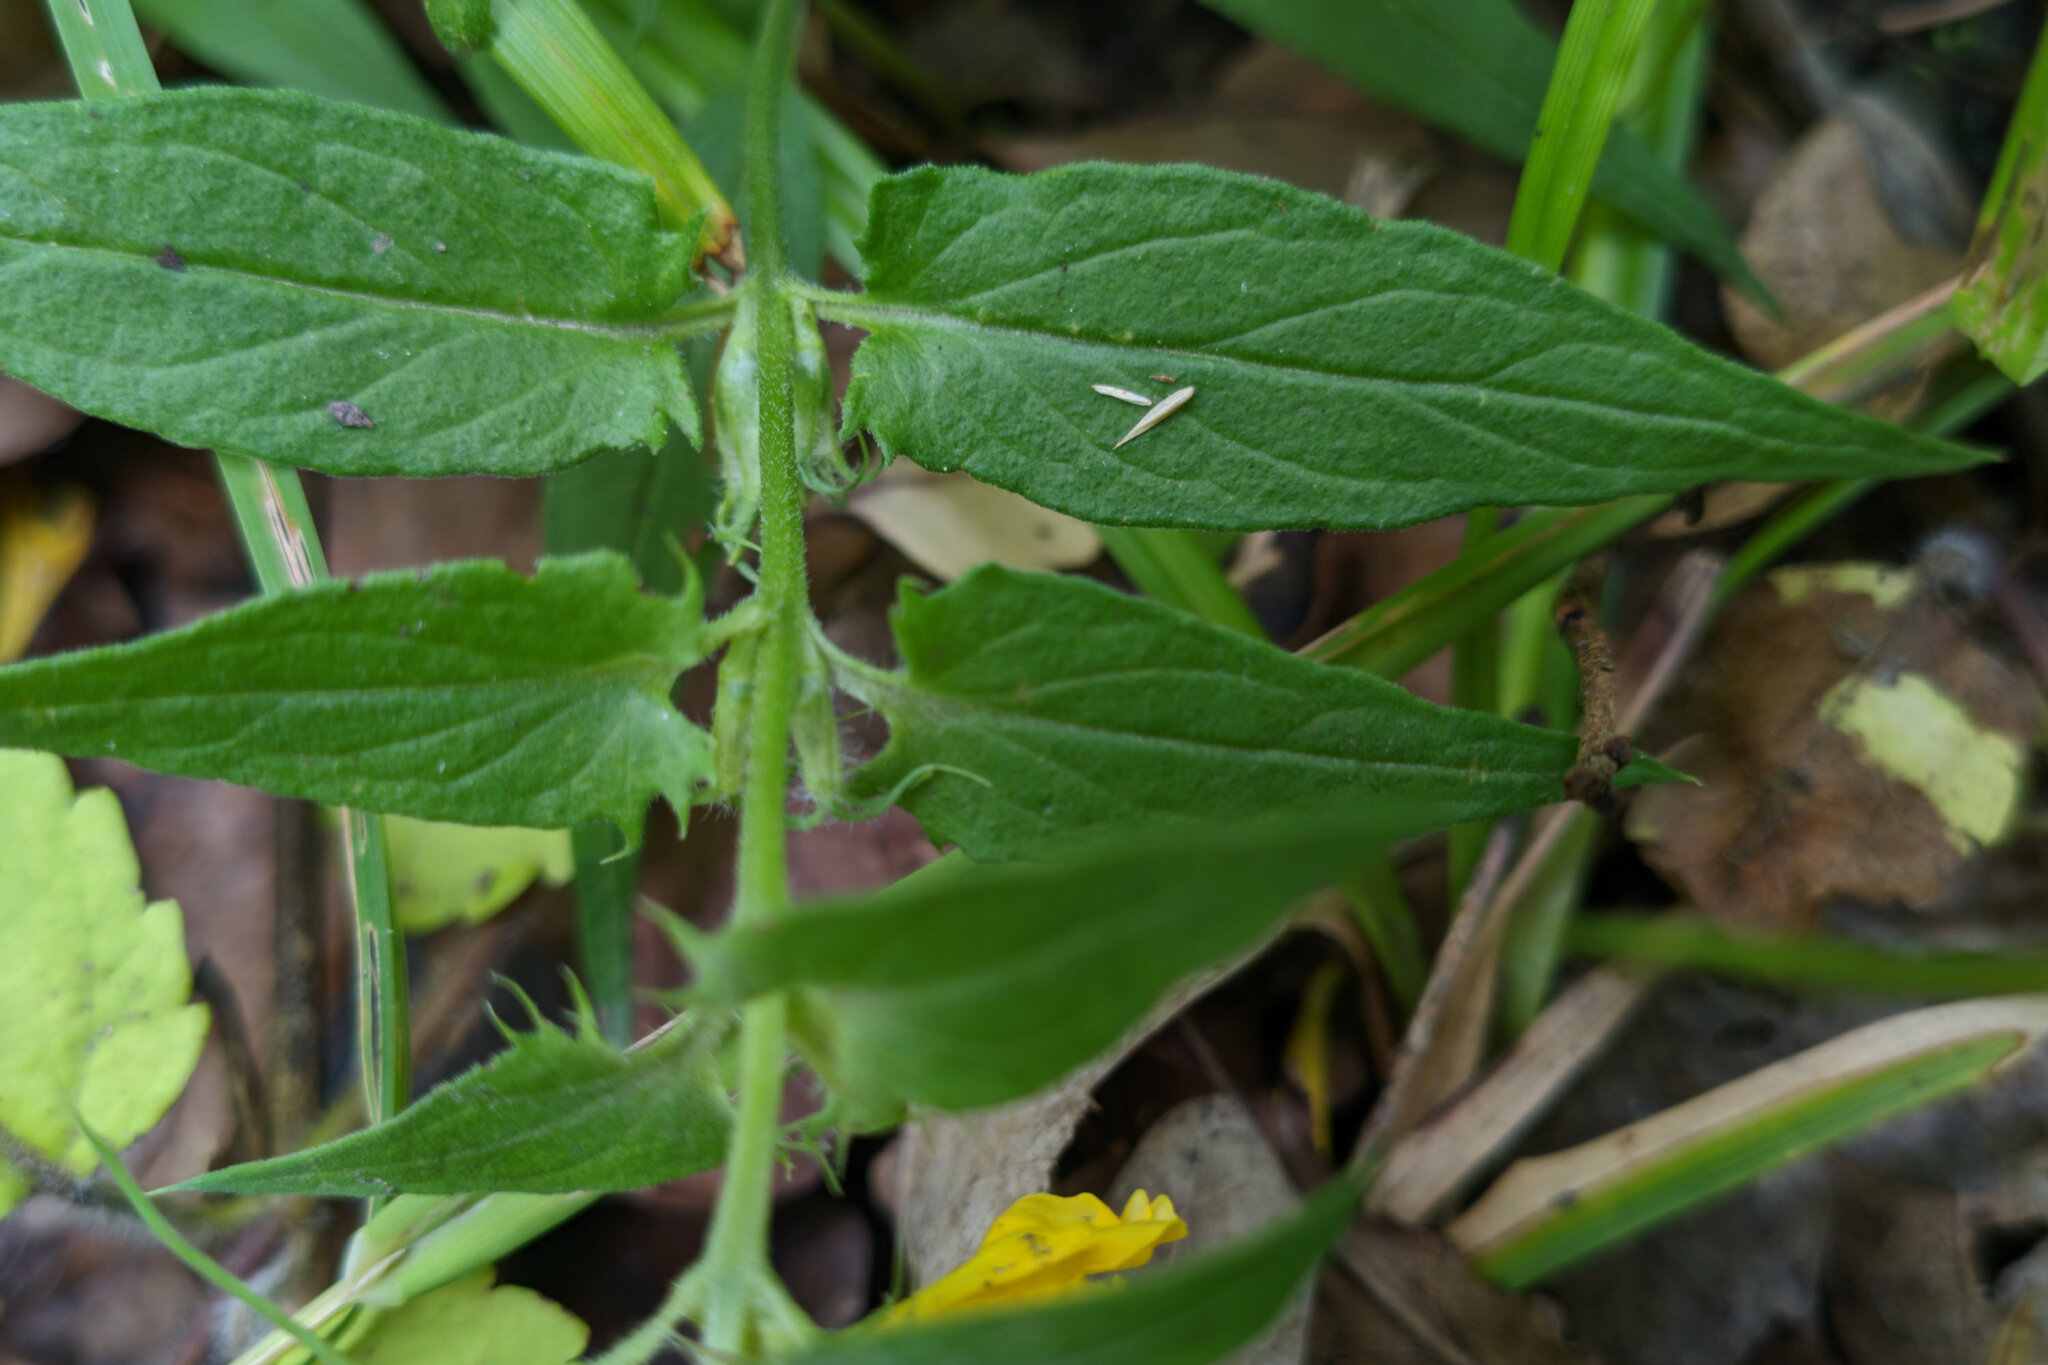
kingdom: Plantae
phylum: Tracheophyta
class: Magnoliopsida
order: Lamiales
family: Orobanchaceae
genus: Melampyrum
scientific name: Melampyrum nemorosum
